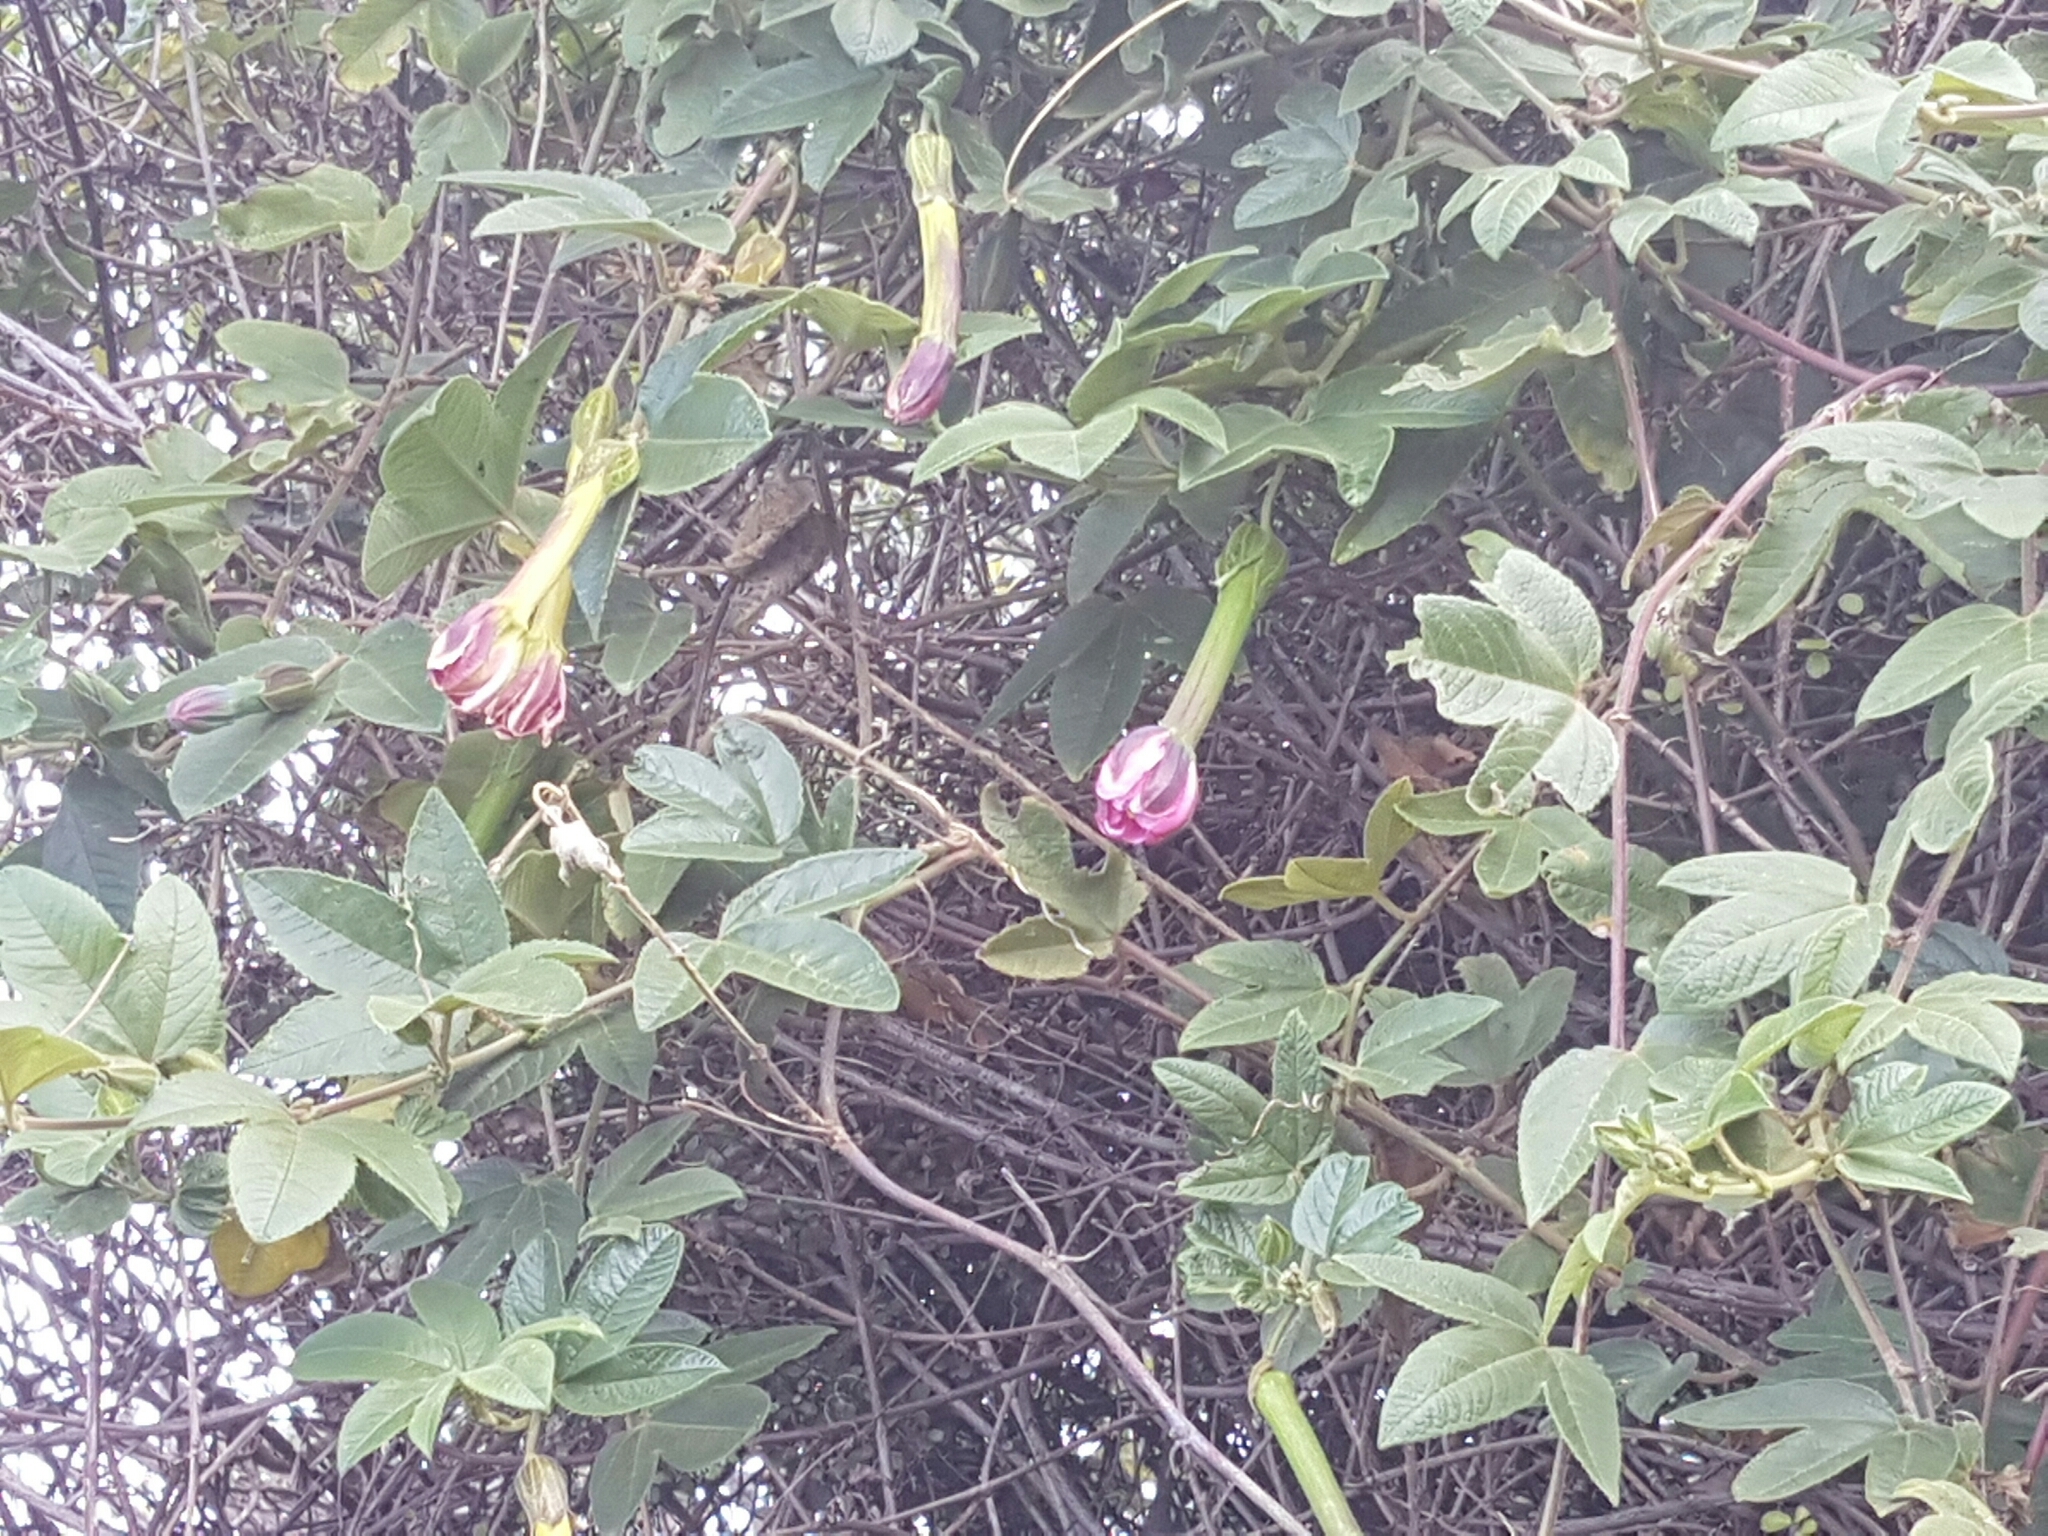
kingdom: Plantae
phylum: Tracheophyta
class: Magnoliopsida
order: Malpighiales
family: Passifloraceae
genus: Passiflora
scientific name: Passiflora tripartita
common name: Banana poka
